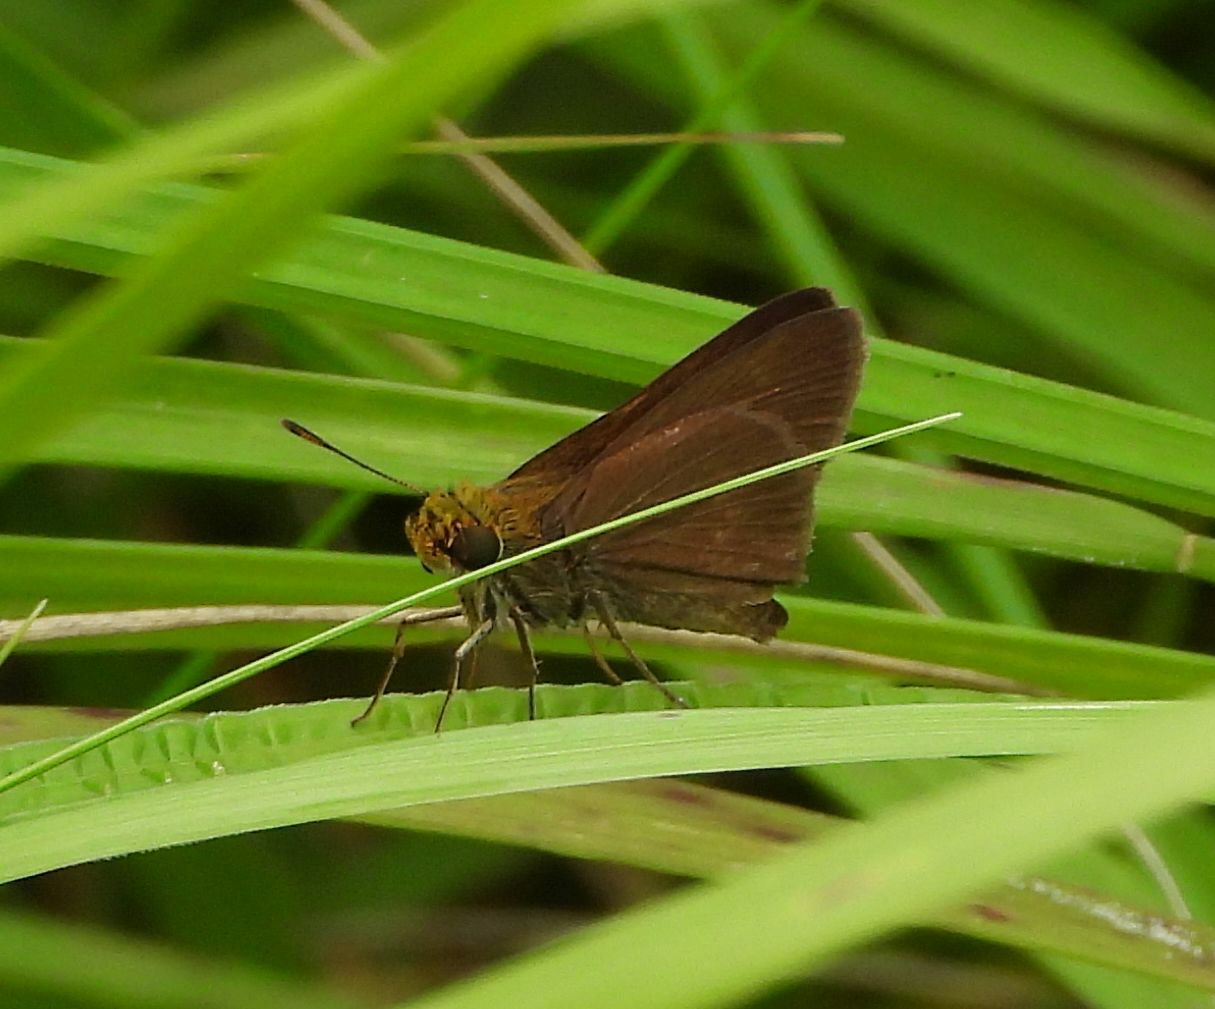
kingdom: Animalia
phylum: Arthropoda
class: Insecta
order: Lepidoptera
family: Hesperiidae
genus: Euphyes
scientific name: Euphyes vestris
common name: Dun skipper
